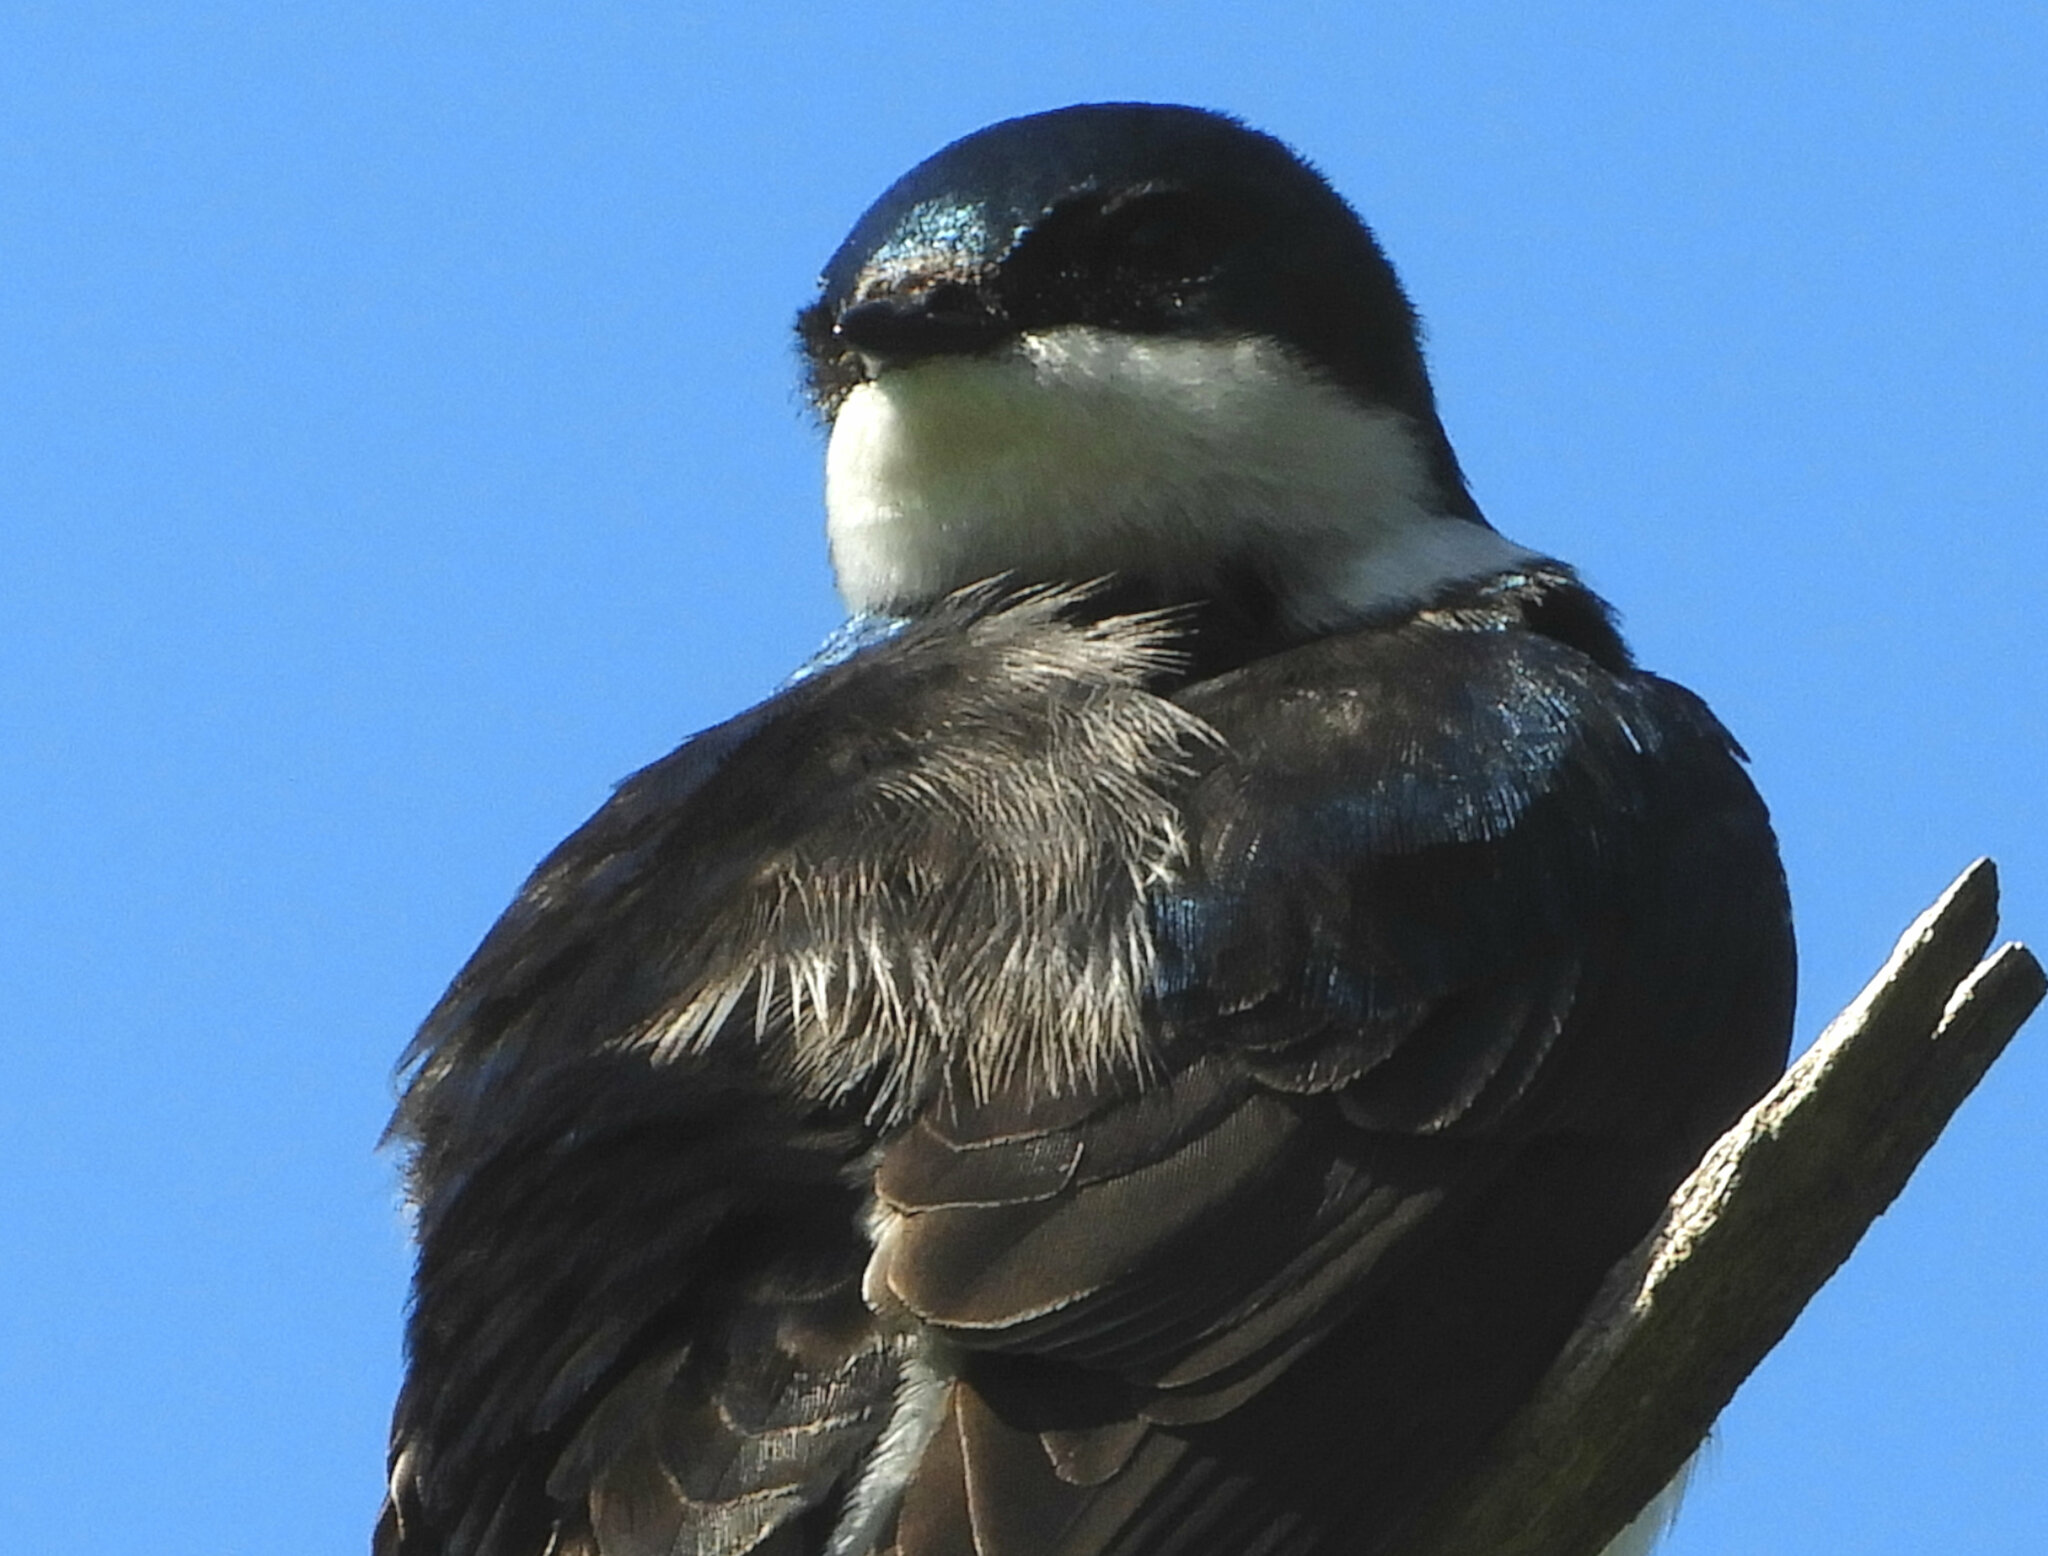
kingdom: Animalia
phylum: Chordata
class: Aves
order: Passeriformes
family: Hirundinidae
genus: Tachycineta
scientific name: Tachycineta bicolor
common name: Tree swallow
